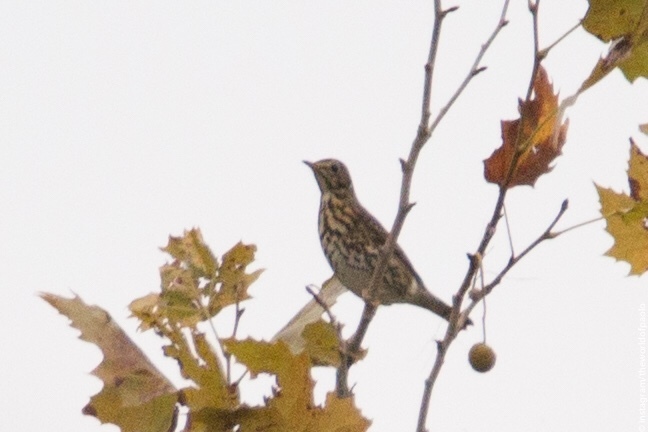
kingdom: Animalia
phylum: Chordata
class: Aves
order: Passeriformes
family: Turdidae
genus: Turdus
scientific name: Turdus philomelos
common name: Song thrush
